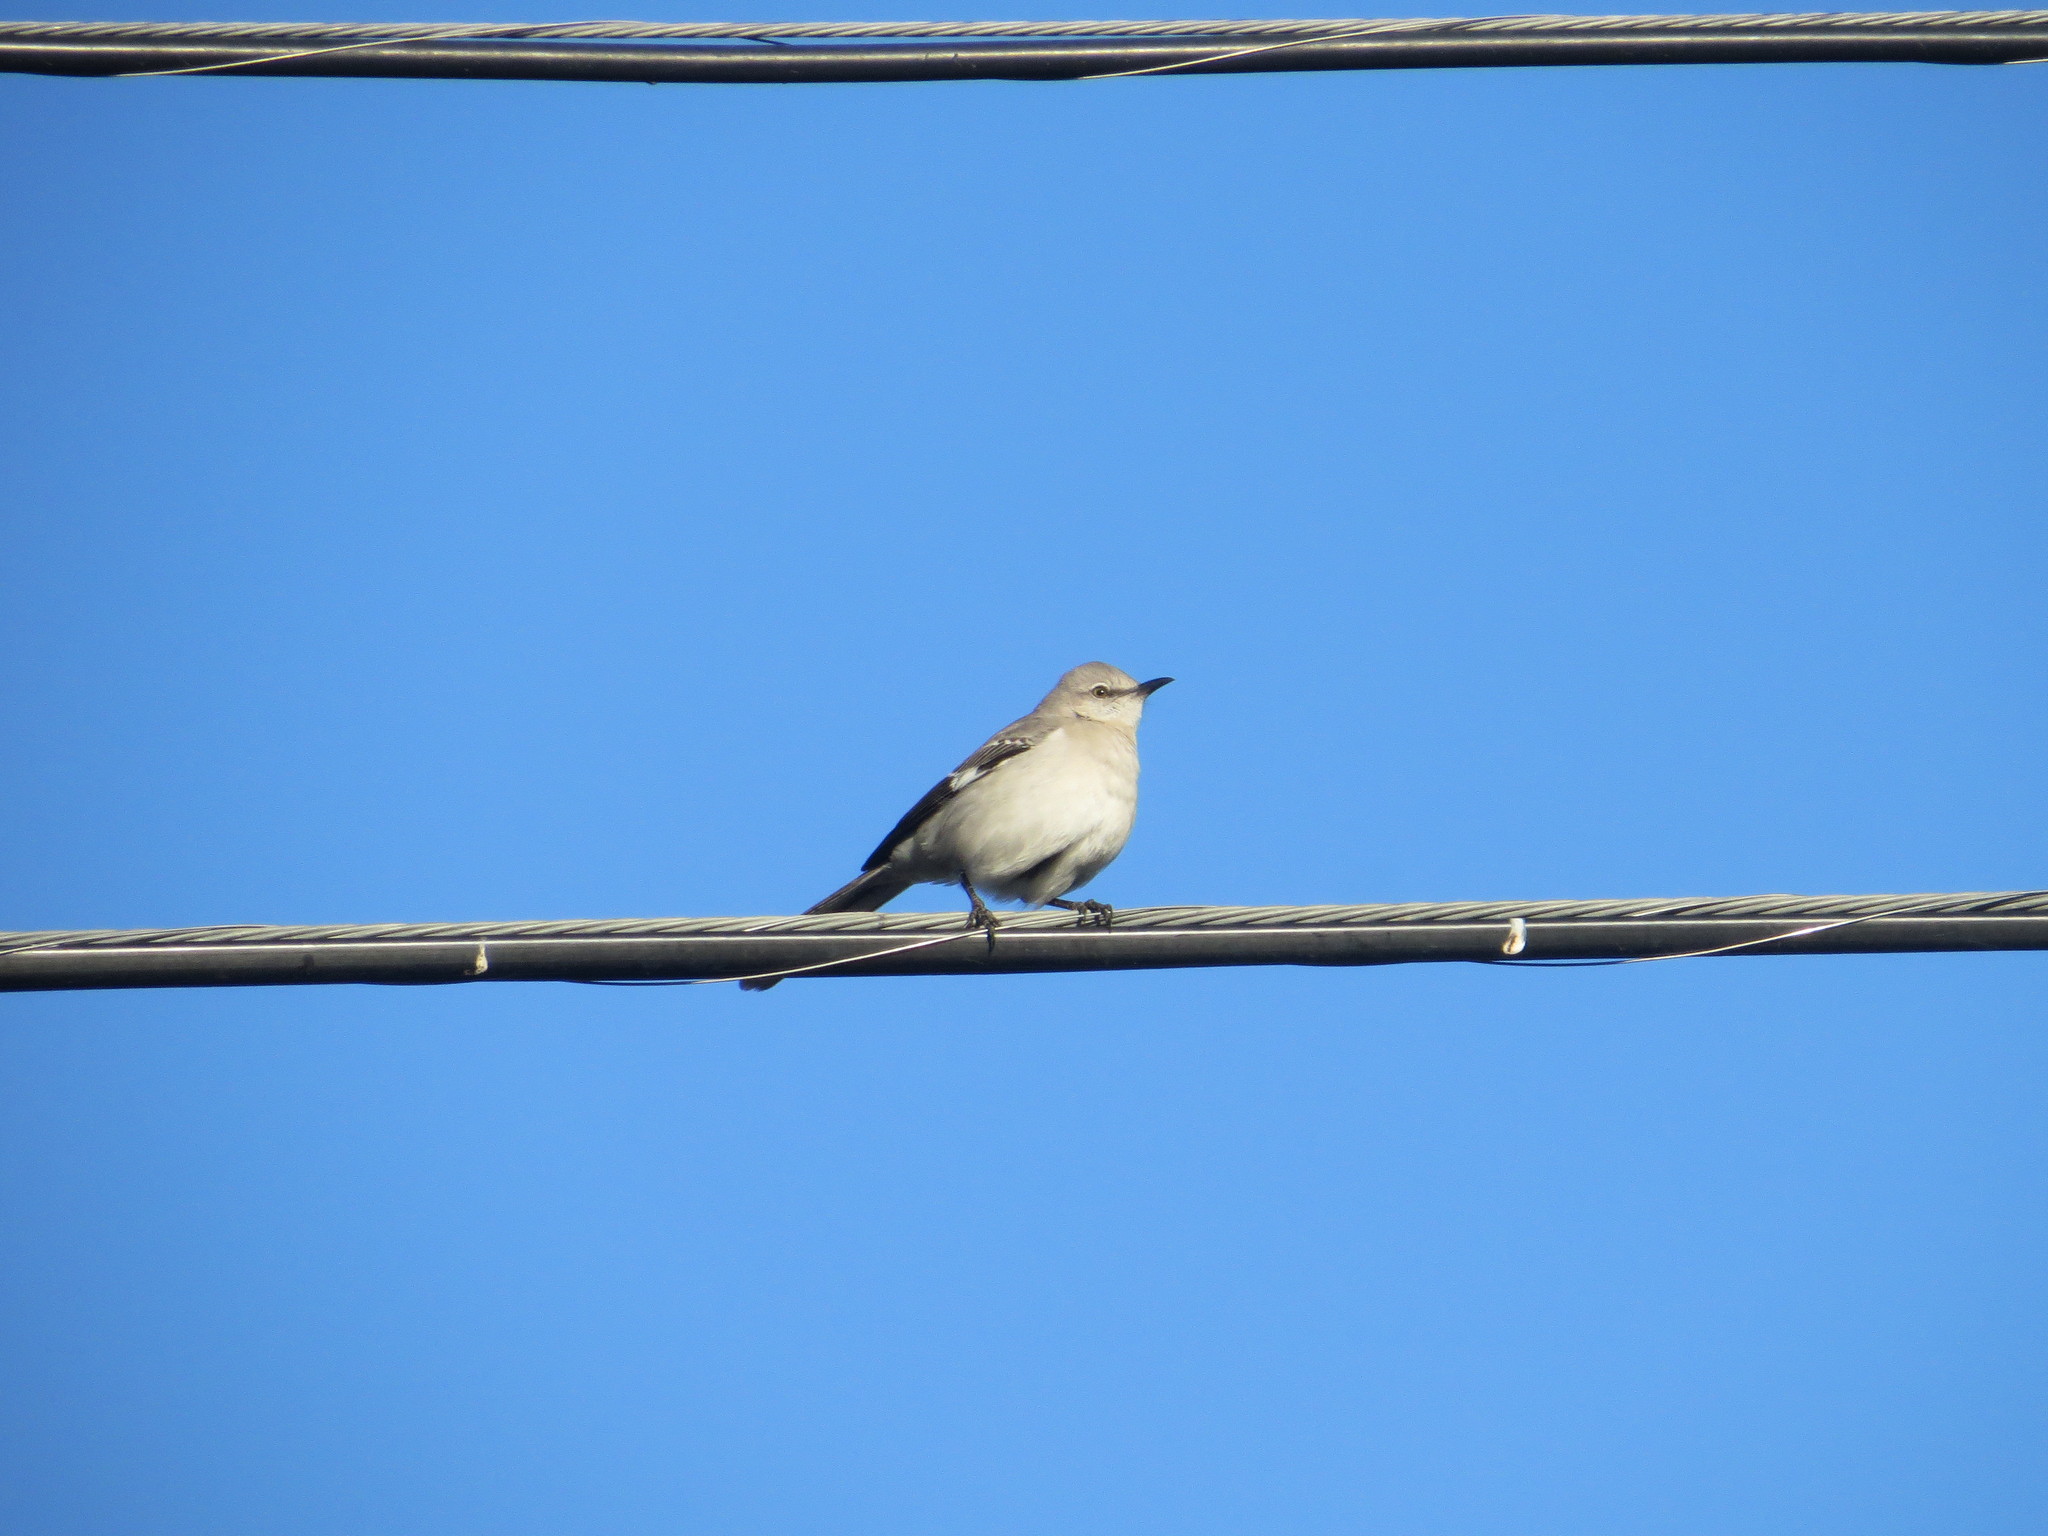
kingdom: Animalia
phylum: Chordata
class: Aves
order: Passeriformes
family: Mimidae
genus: Mimus
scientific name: Mimus polyglottos
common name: Northern mockingbird
